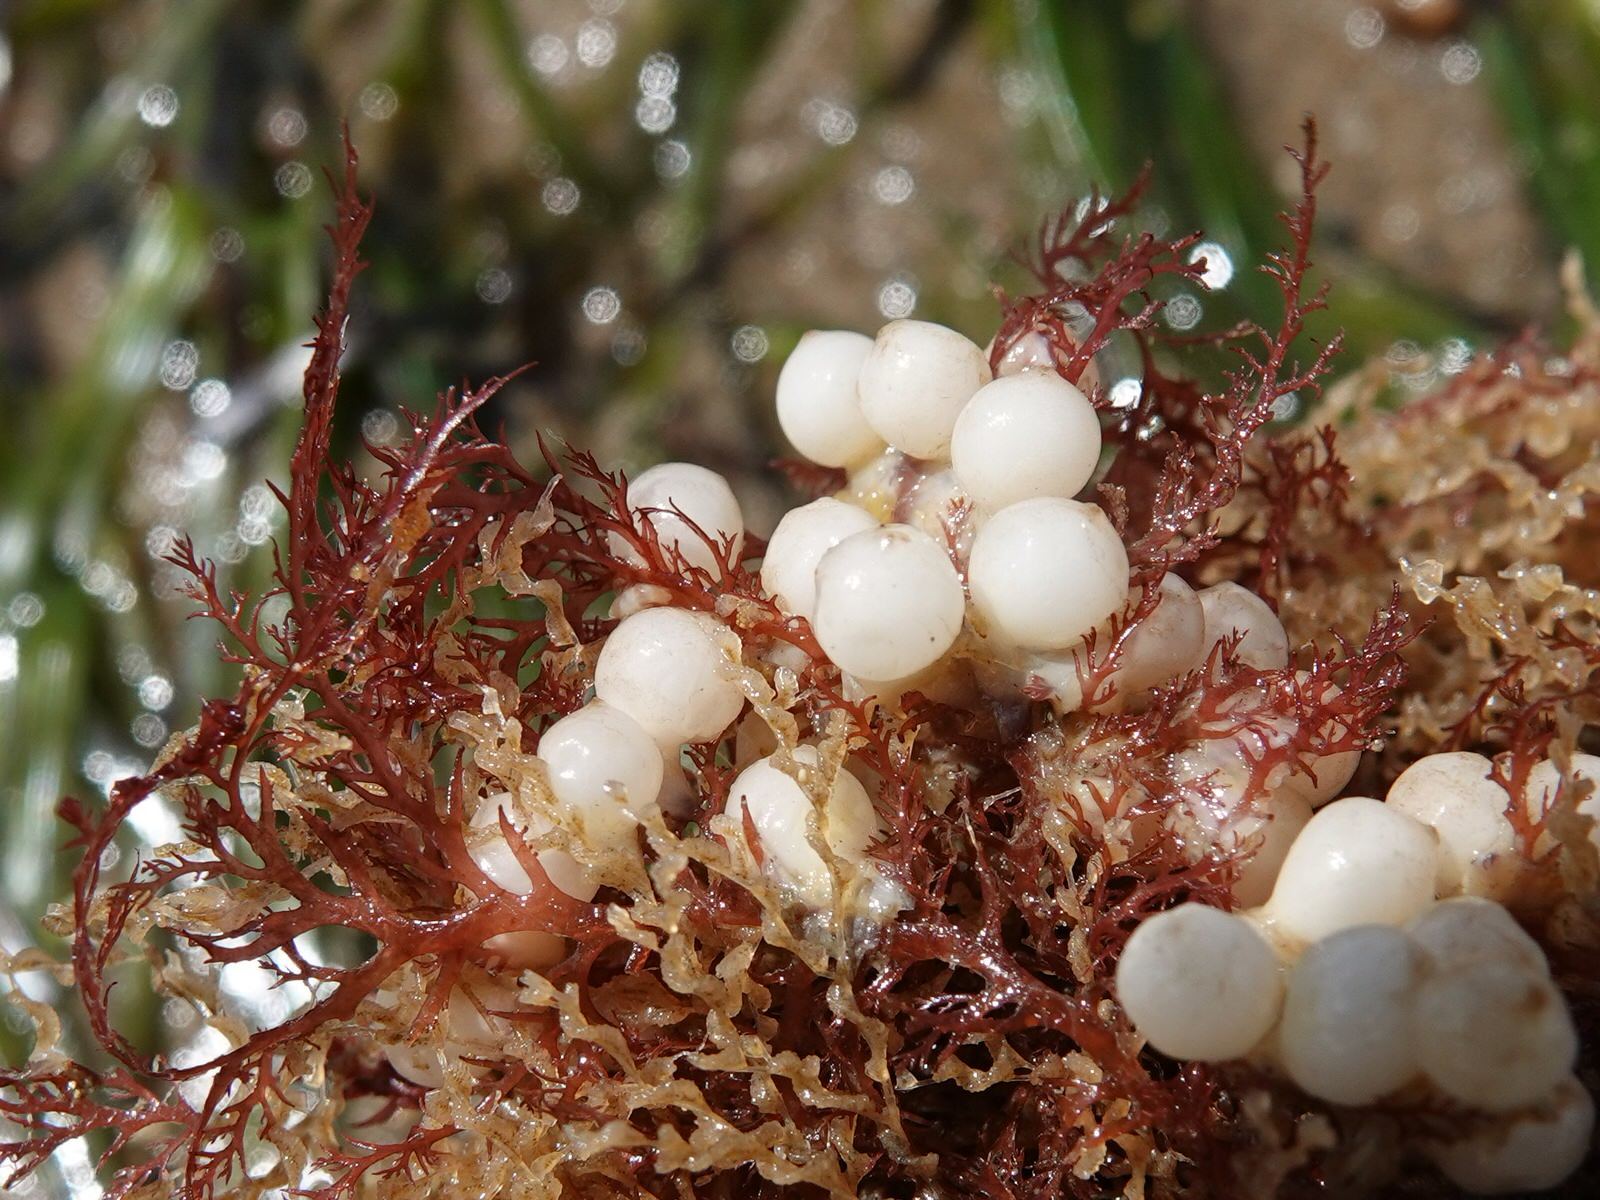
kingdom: Animalia
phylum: Mollusca
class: Cephalopoda
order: Sepiida
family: Sepiadariidae
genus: Sepioloidea
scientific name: Sepioloidea pacifica
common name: Pacific bobtail squid
